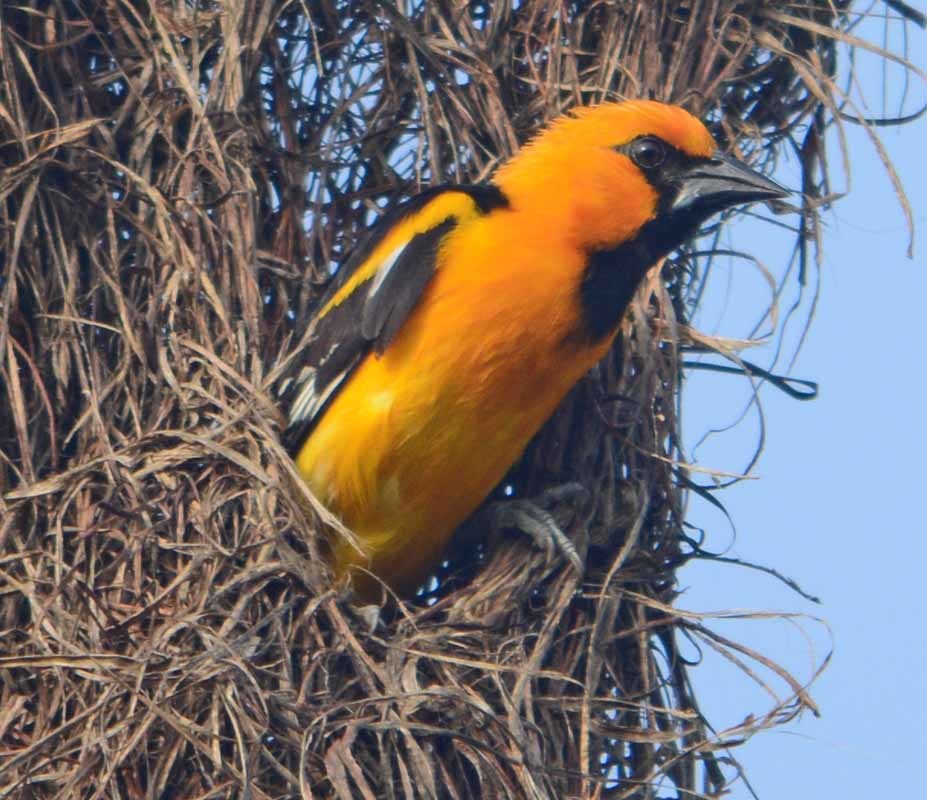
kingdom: Animalia
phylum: Chordata
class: Aves
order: Passeriformes
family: Icteridae
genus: Icterus
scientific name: Icterus gularis
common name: Altamira oriole
